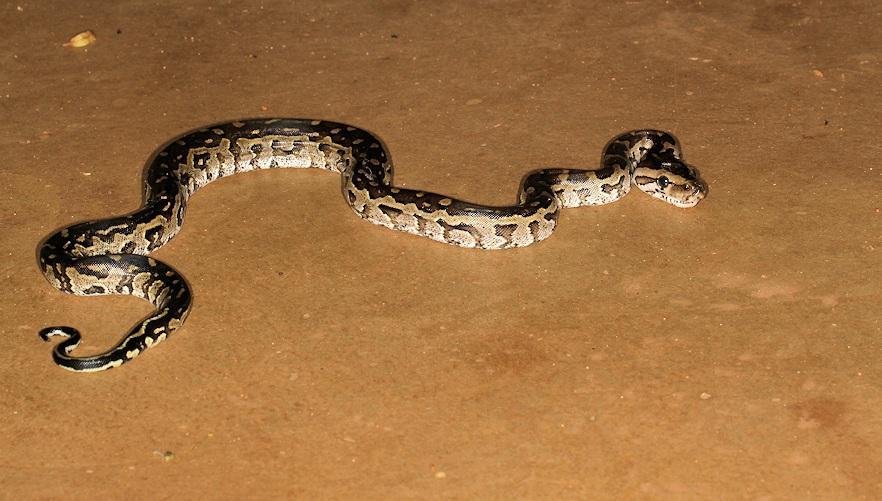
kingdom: Animalia
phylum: Chordata
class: Squamata
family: Pythonidae
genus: Python
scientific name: Python natalensis
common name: Southern african rock python
